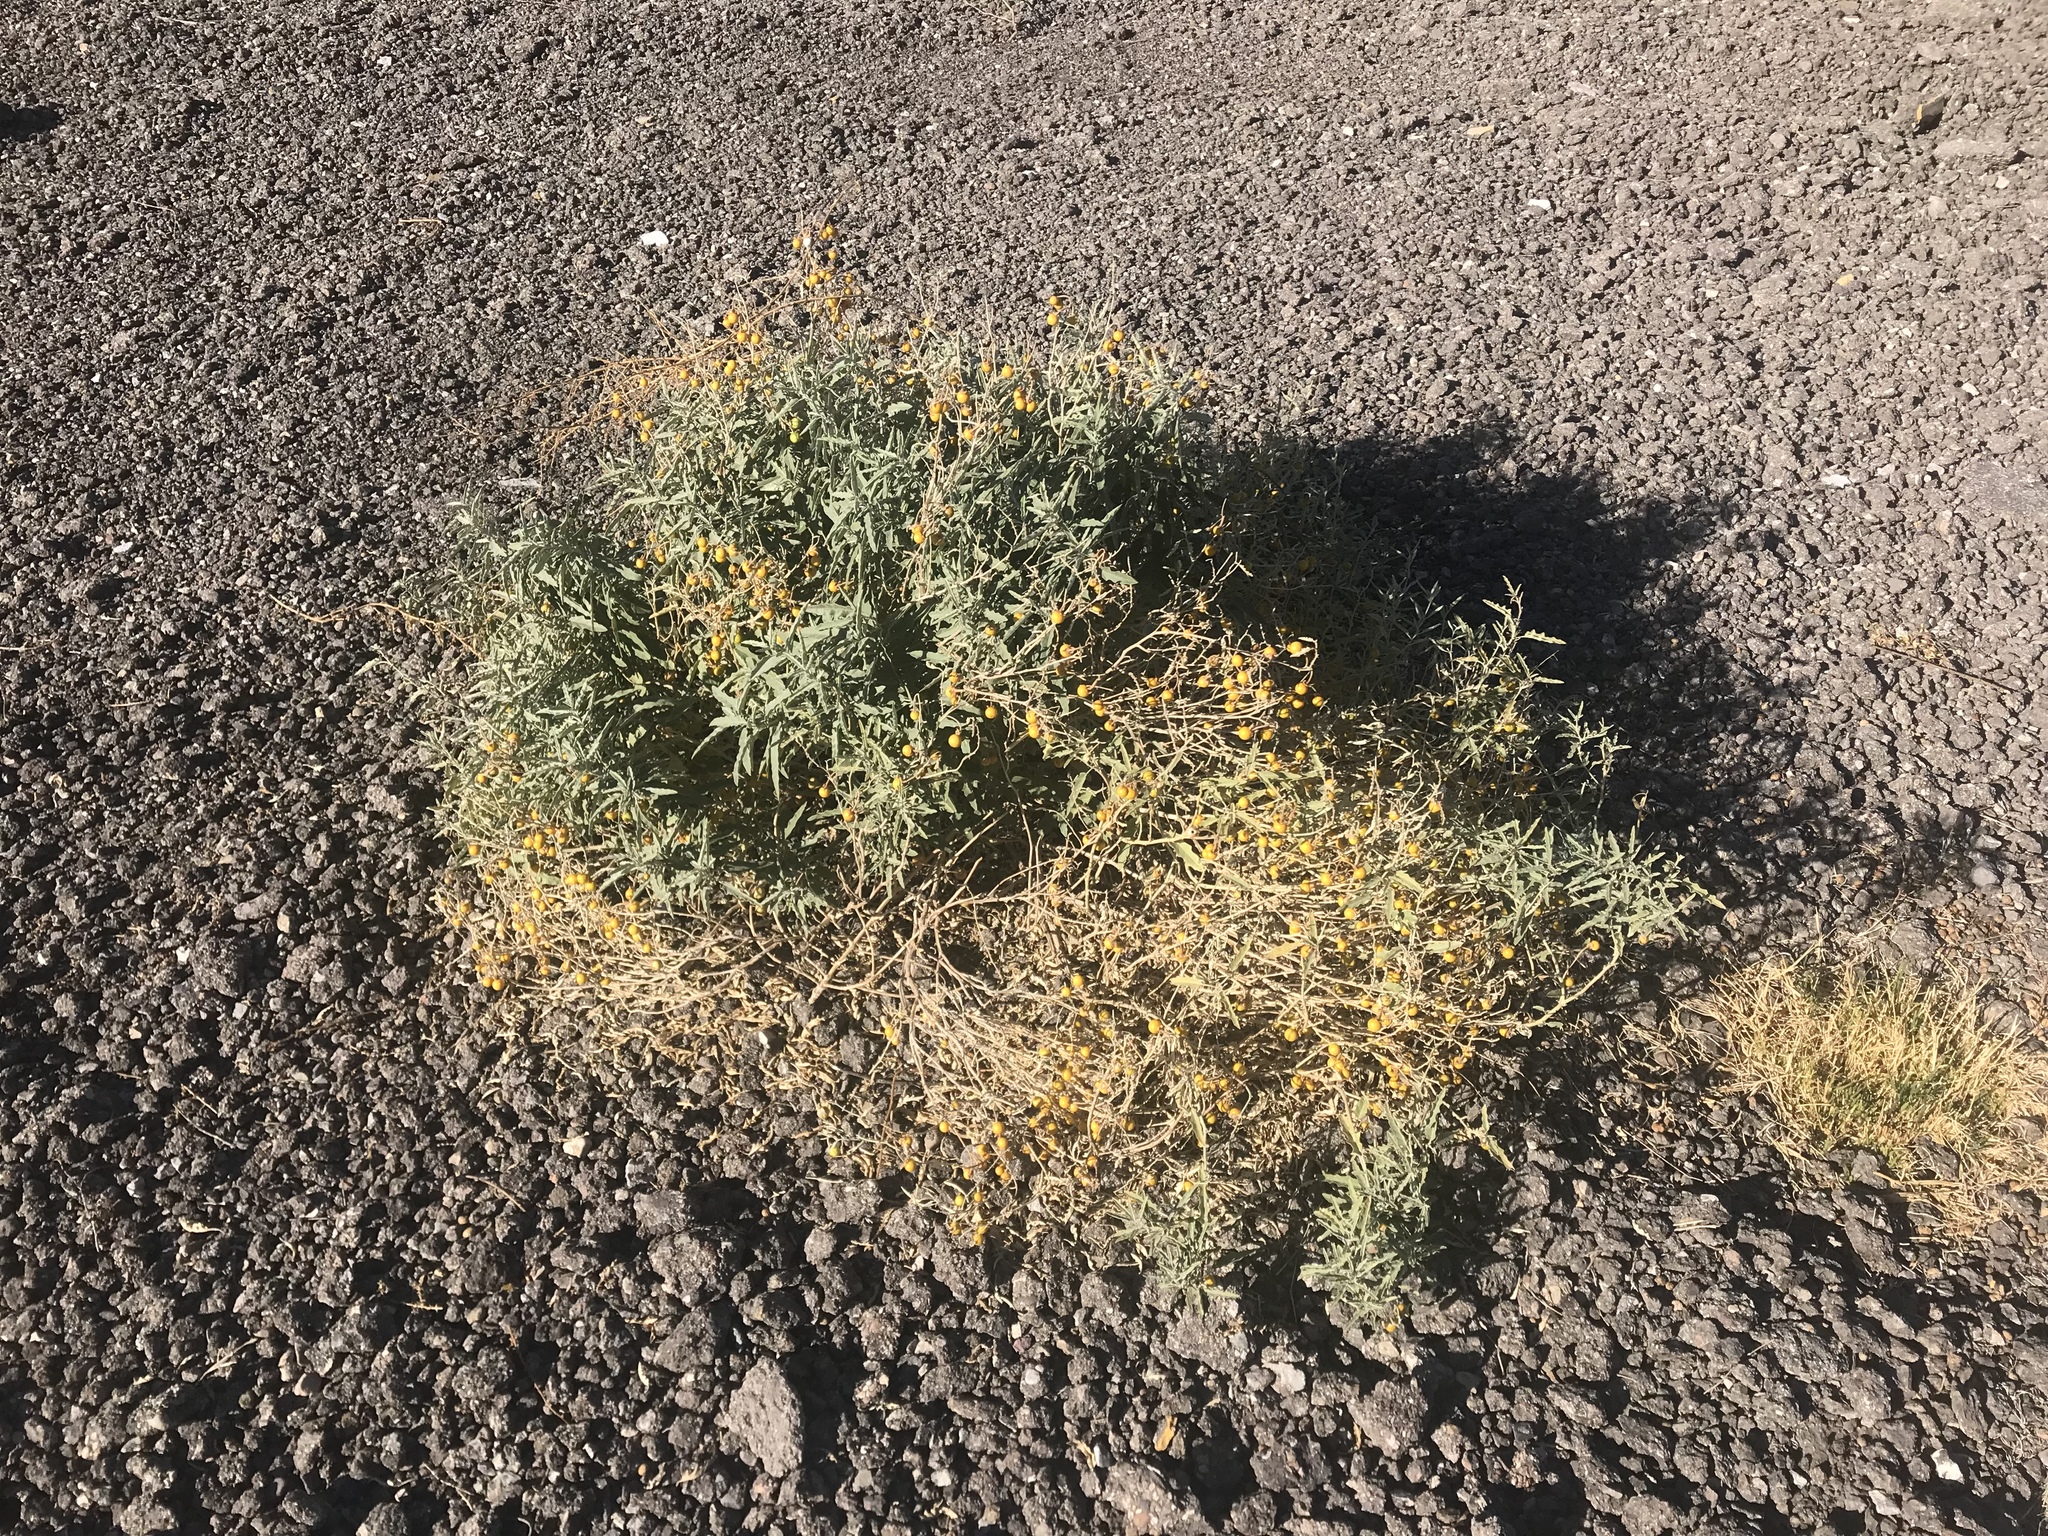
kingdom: Plantae
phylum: Tracheophyta
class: Magnoliopsida
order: Solanales
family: Solanaceae
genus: Solanum
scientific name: Solanum elaeagnifolium
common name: Silverleaf nightshade
